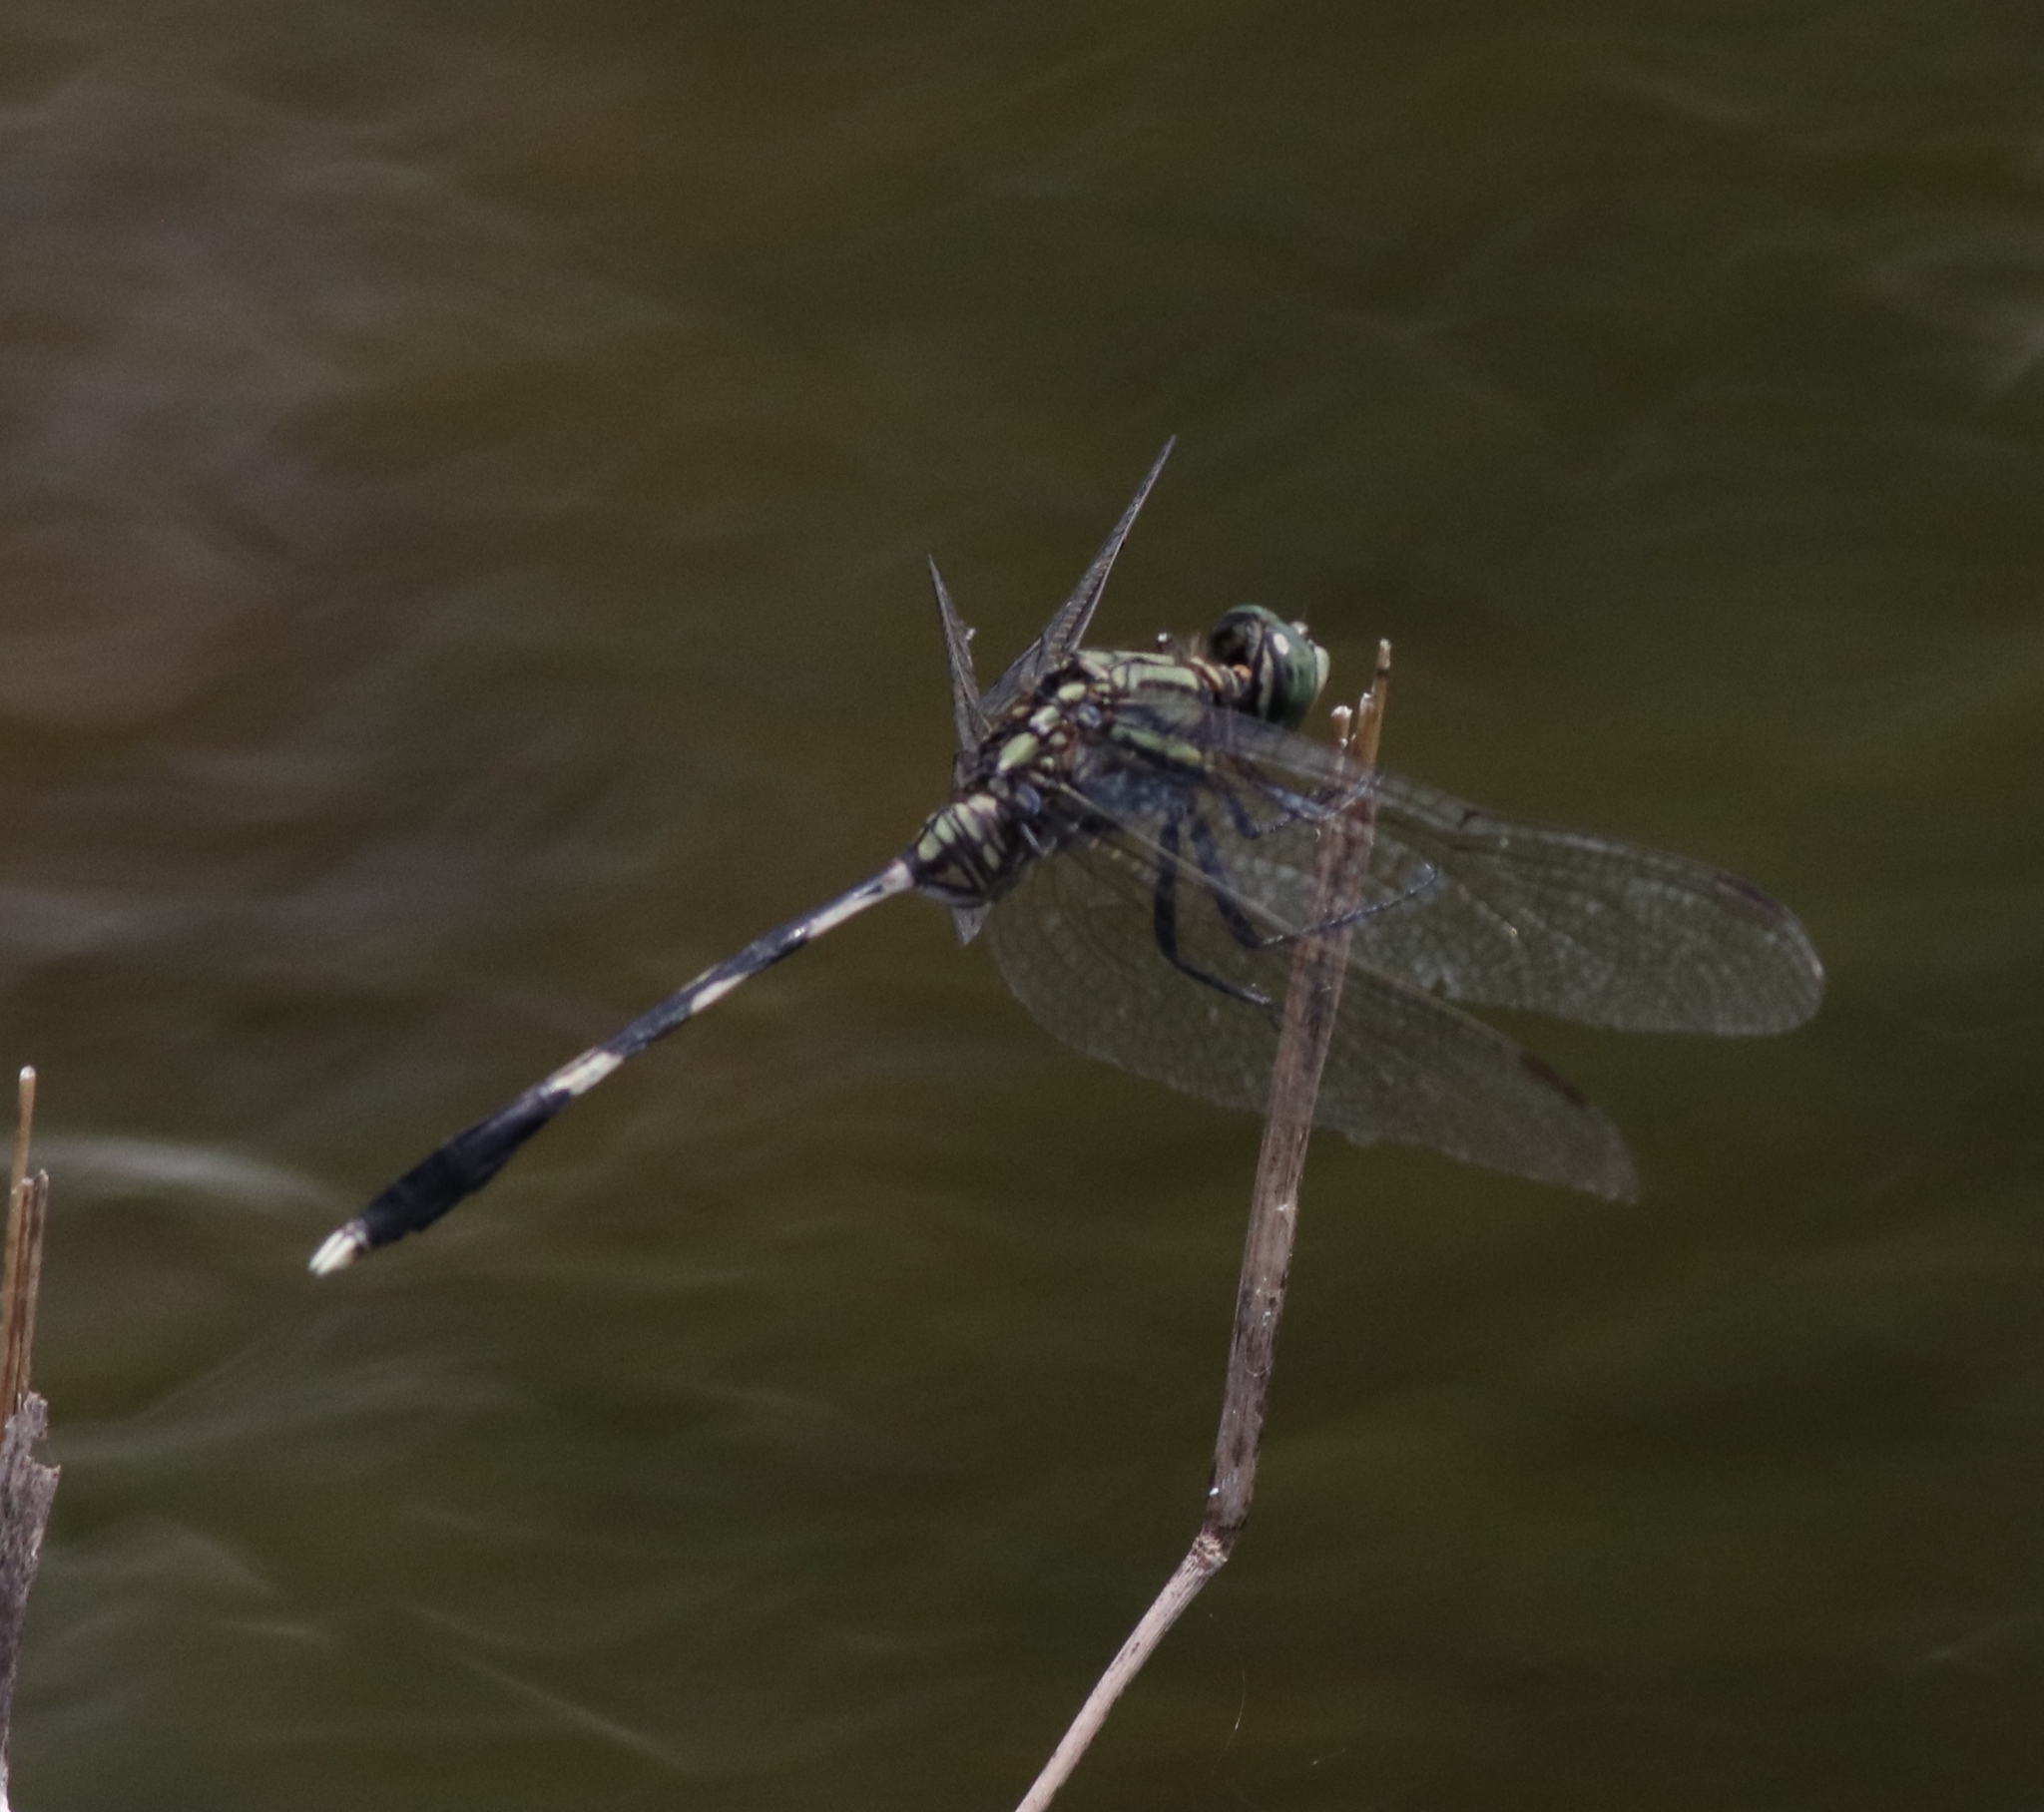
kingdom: Animalia
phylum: Arthropoda
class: Insecta
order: Odonata
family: Libellulidae
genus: Orthetrum
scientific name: Orthetrum sabina
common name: Slender skimmer
